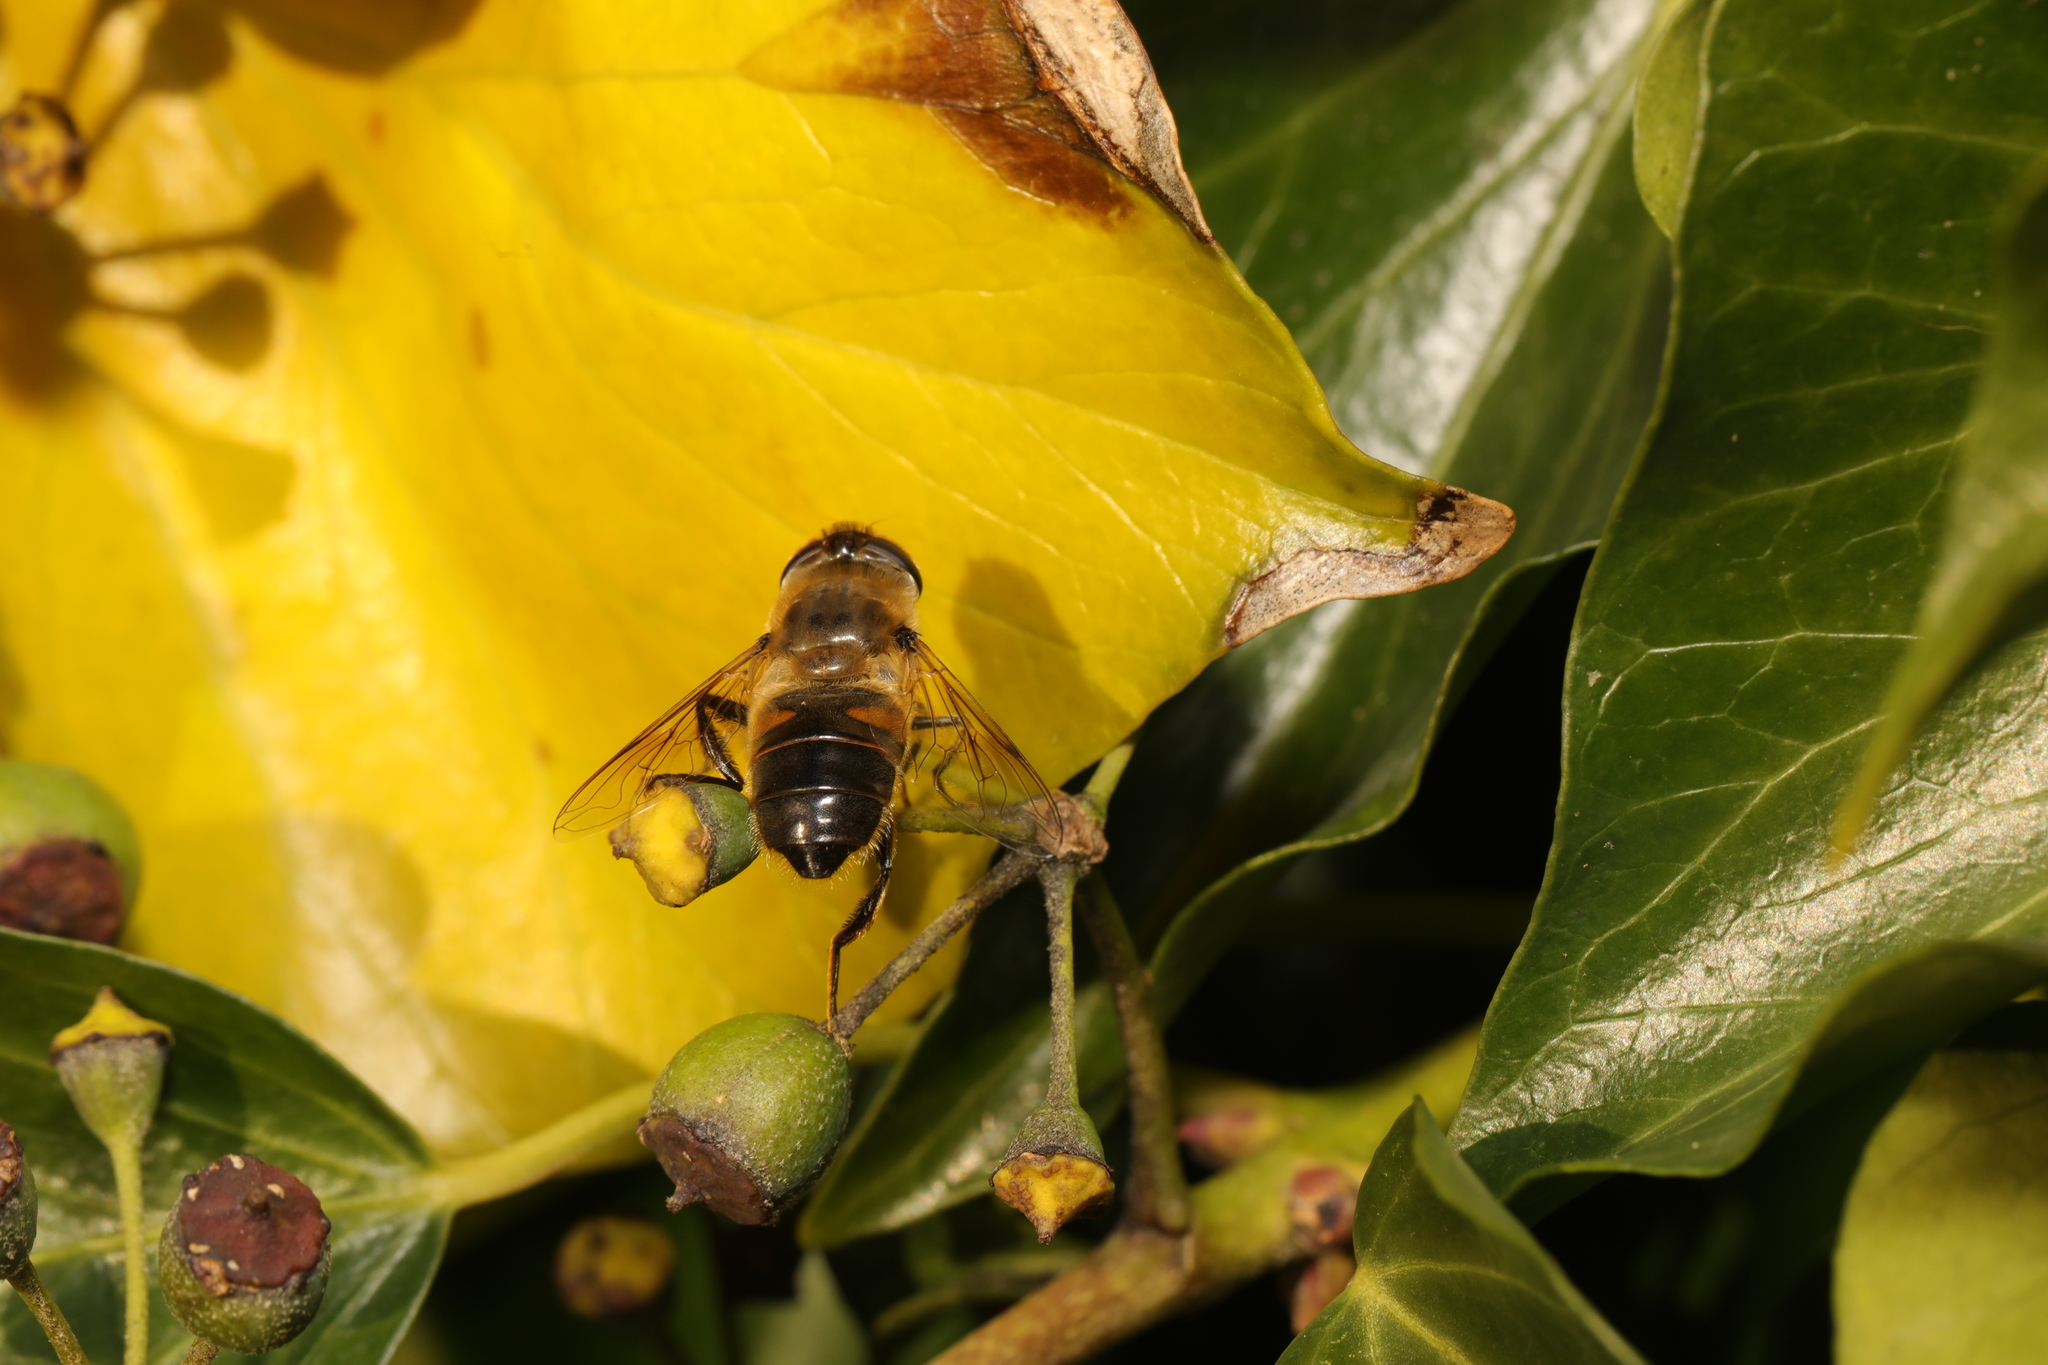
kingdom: Animalia
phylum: Arthropoda
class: Insecta
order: Diptera
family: Syrphidae
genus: Eristalis
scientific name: Eristalis tenax
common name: Drone fly
